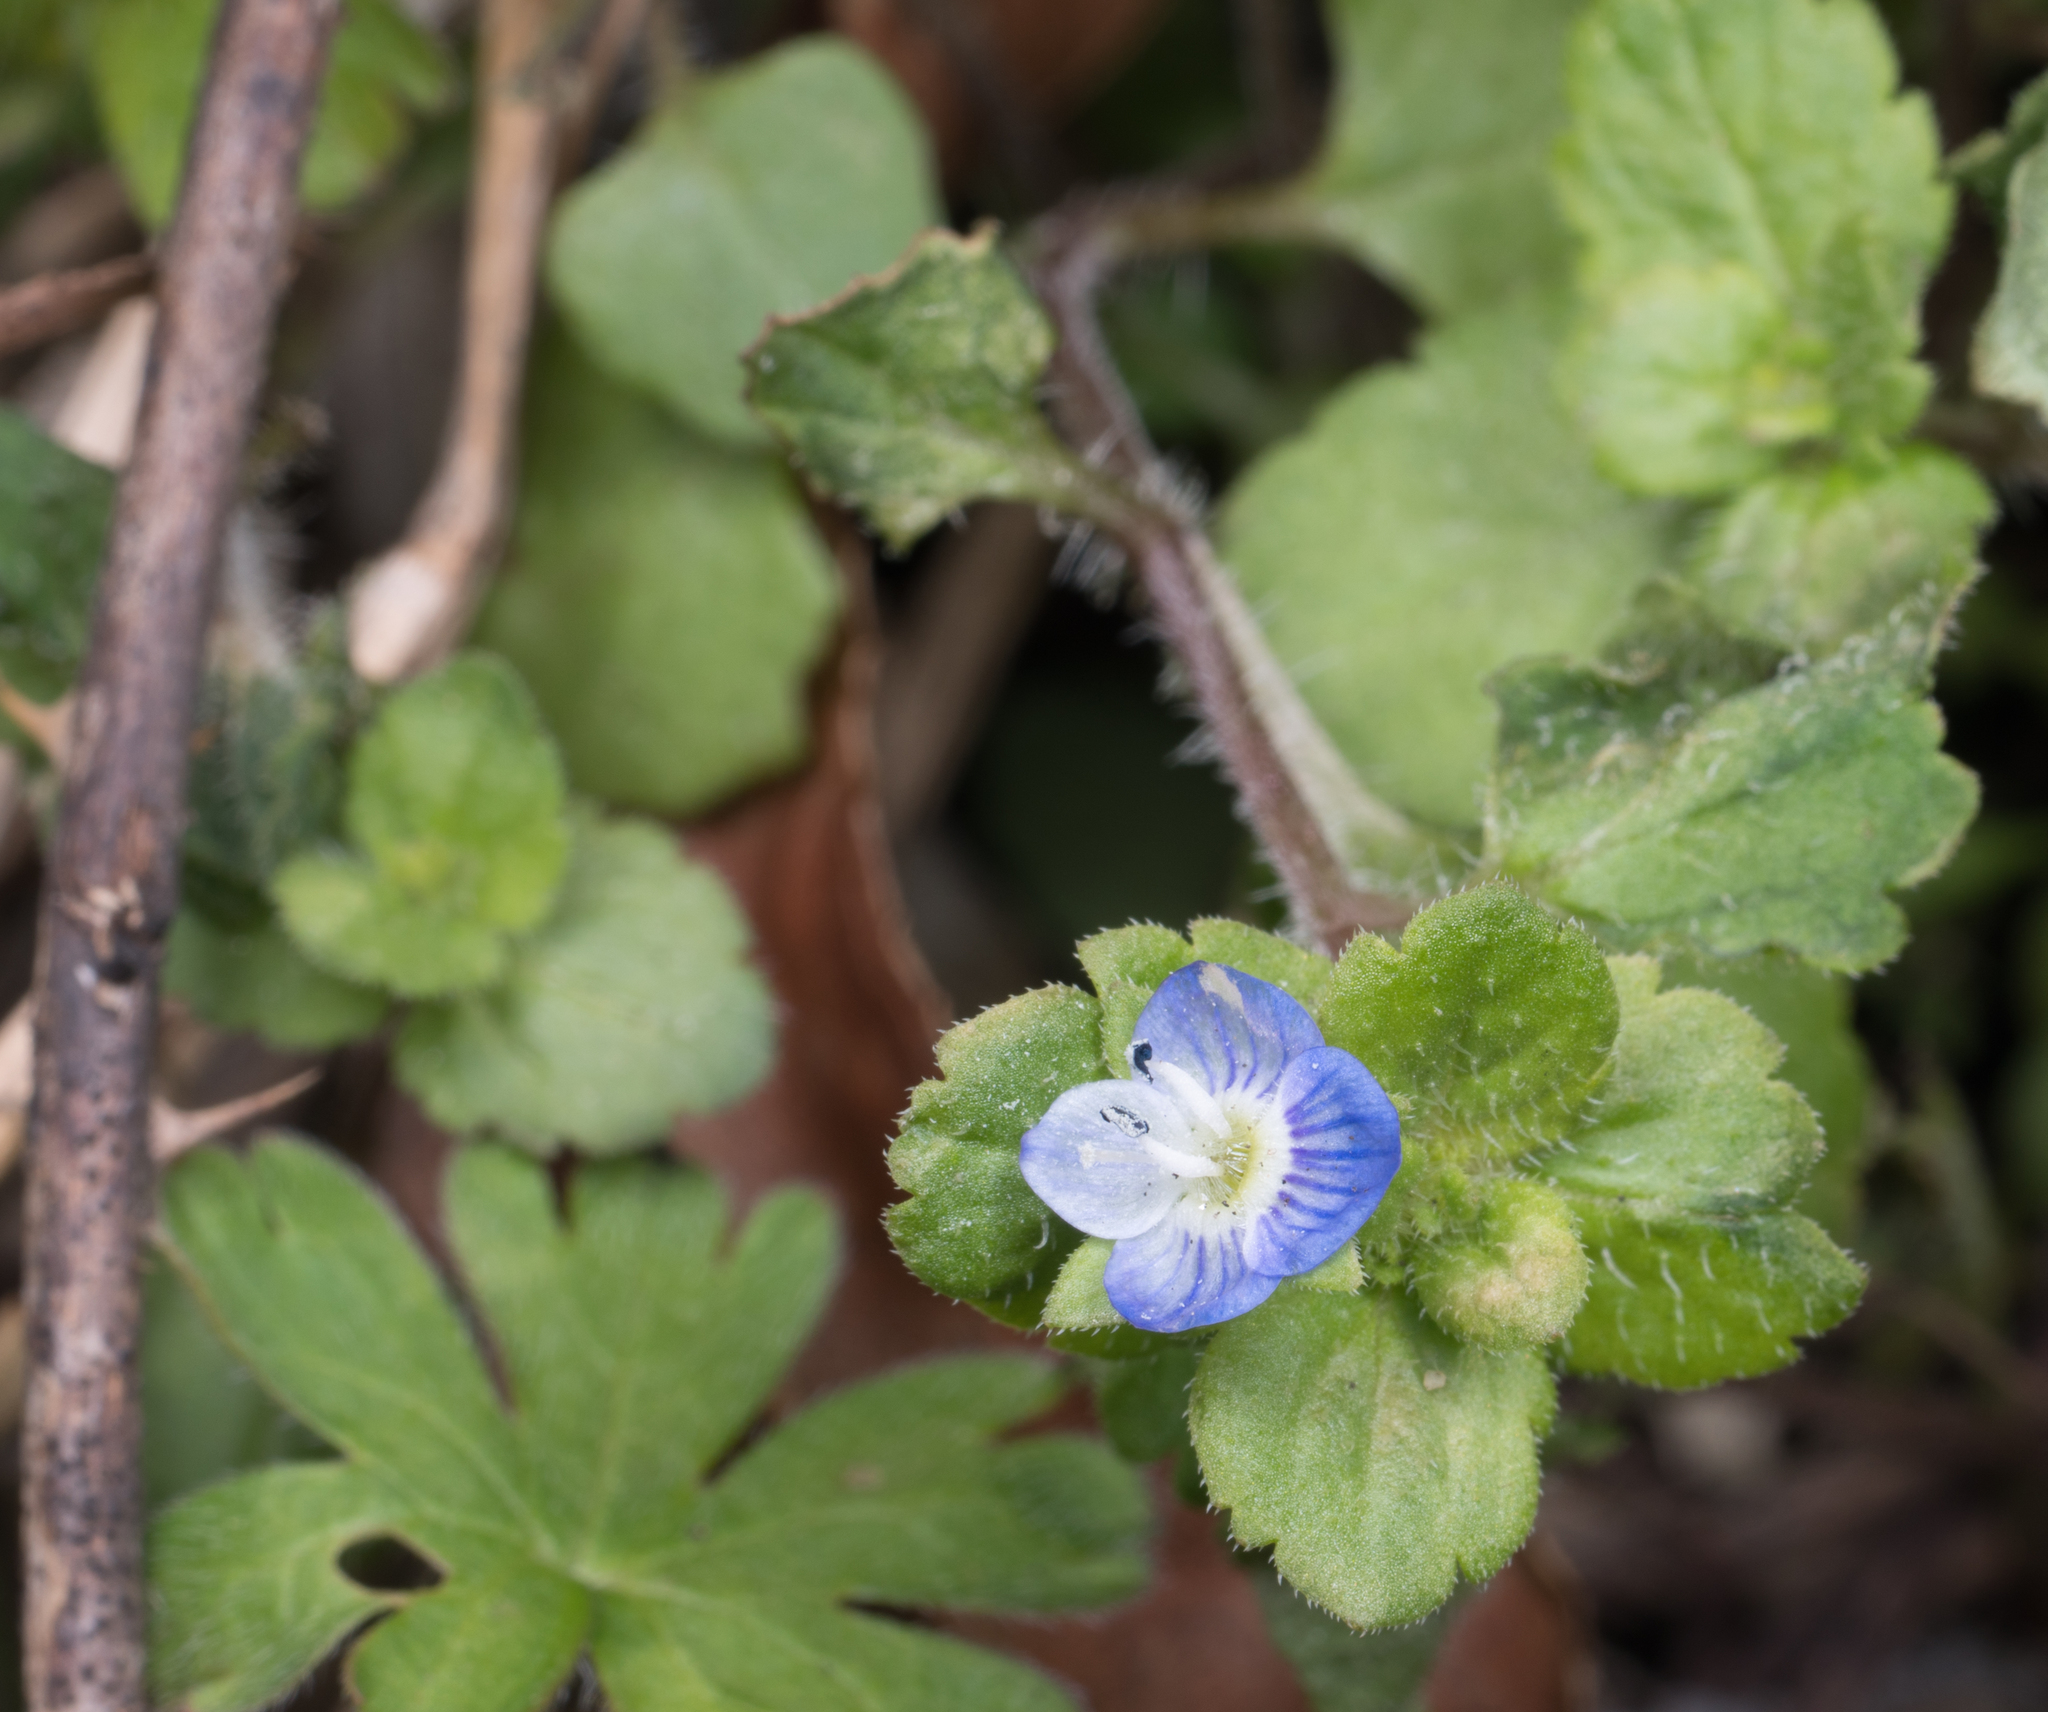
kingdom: Plantae
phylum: Tracheophyta
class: Magnoliopsida
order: Lamiales
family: Plantaginaceae
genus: Veronica
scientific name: Veronica persica
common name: Common field-speedwell
